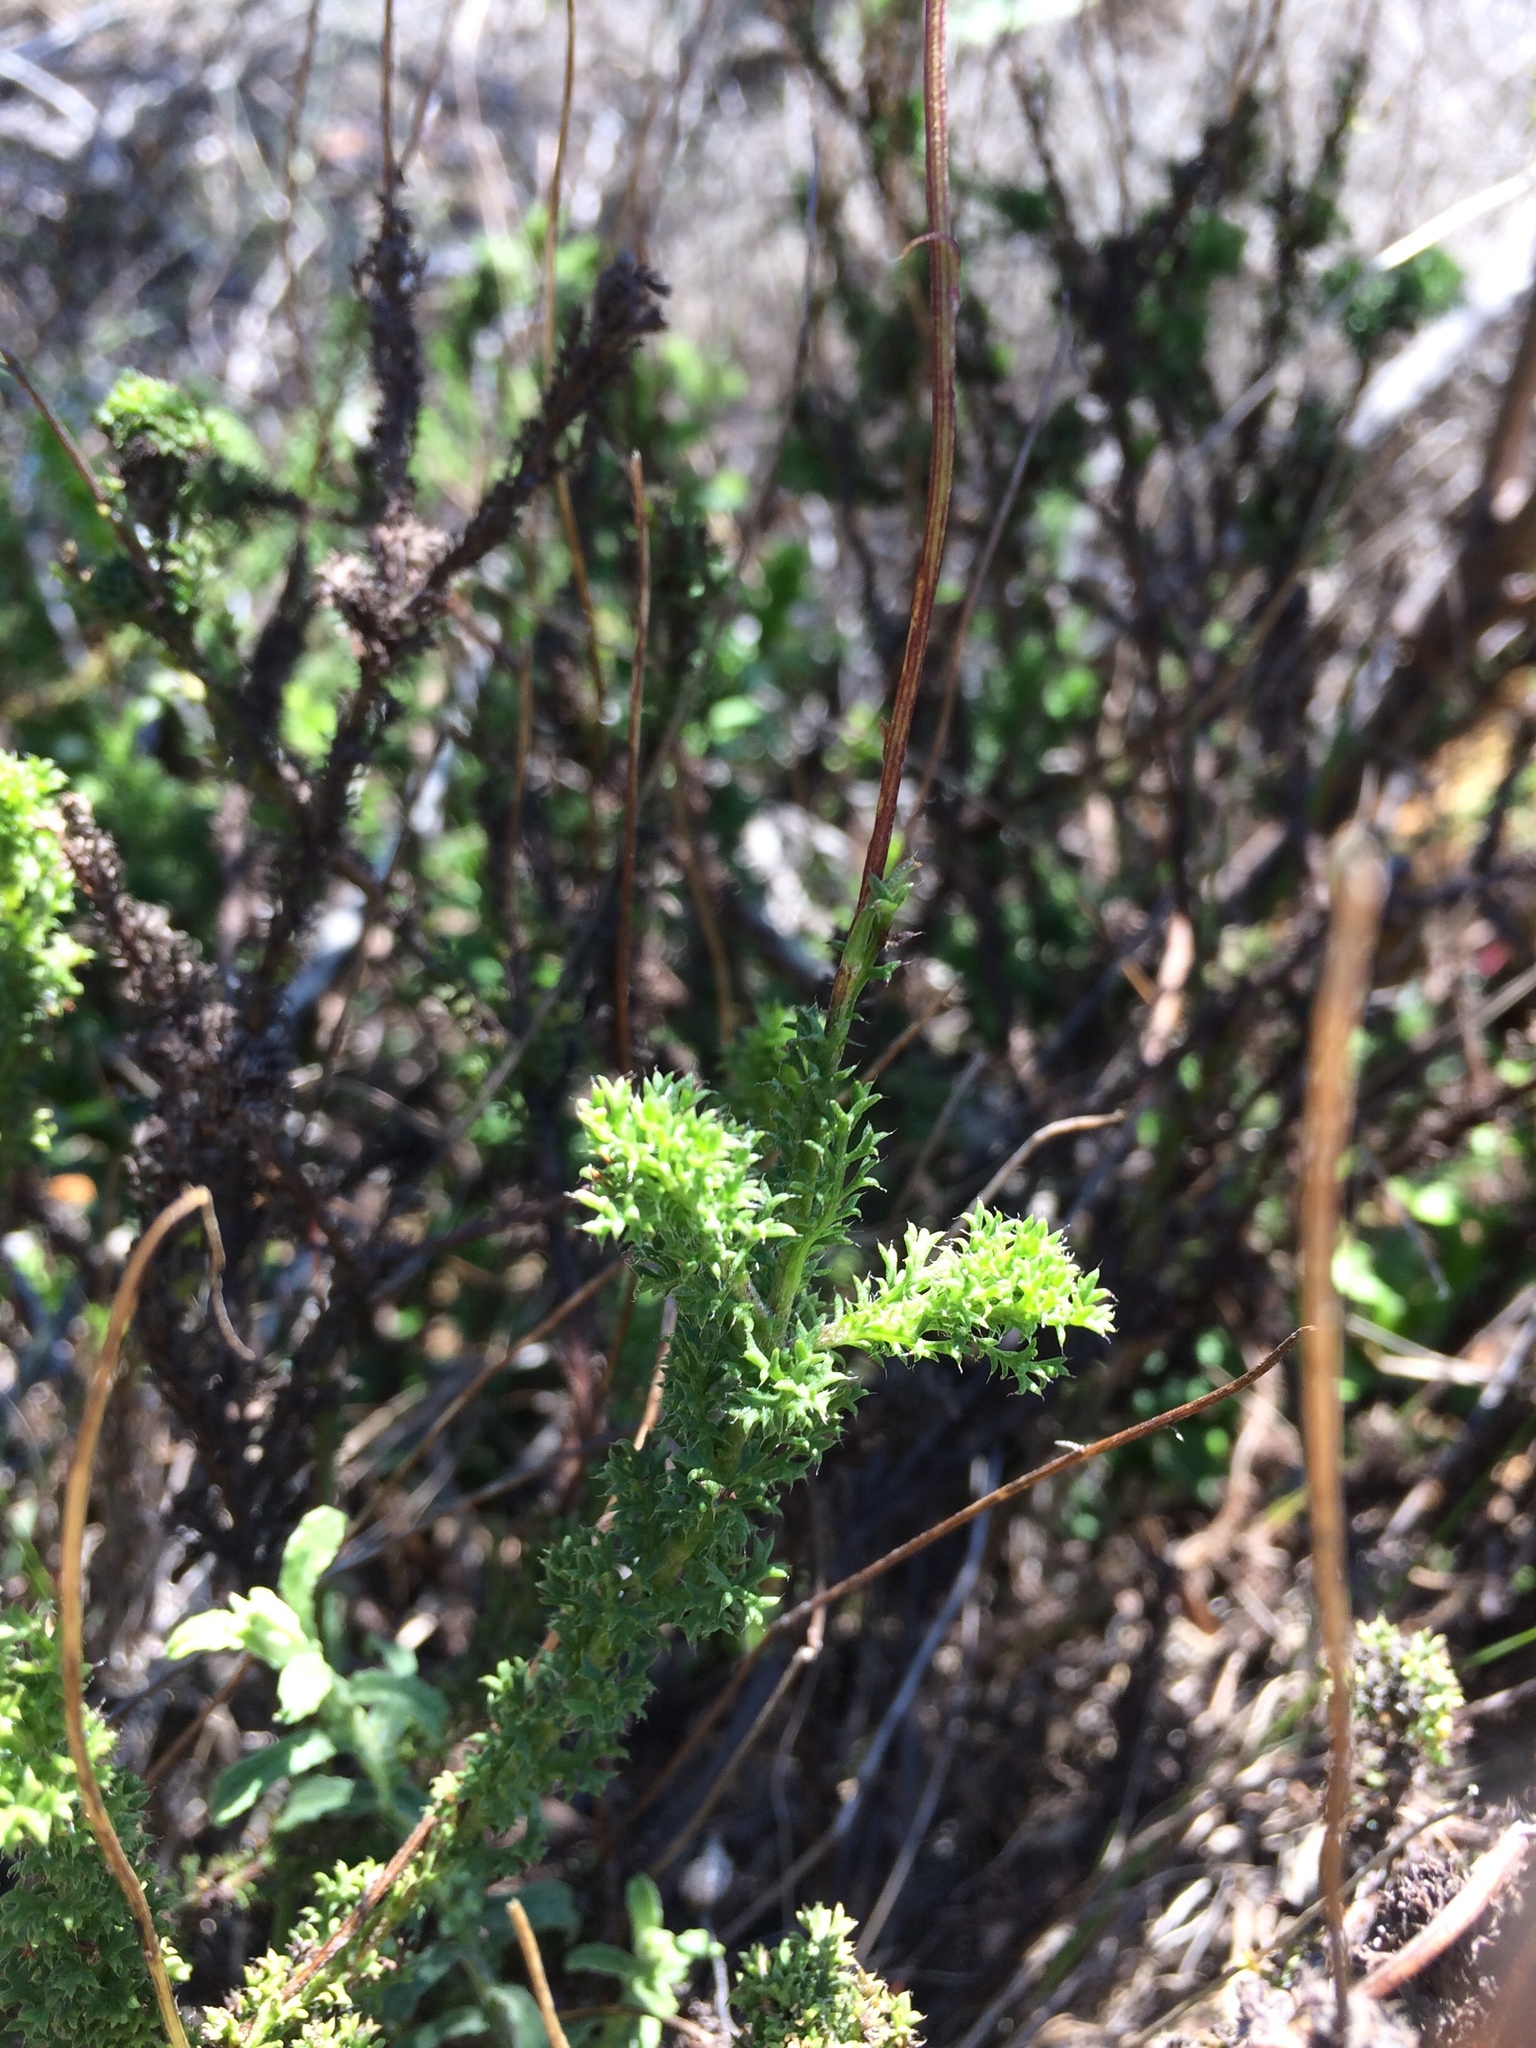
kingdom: Plantae
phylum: Tracheophyta
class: Magnoliopsida
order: Asterales
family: Asteraceae
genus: Ursinia
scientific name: Ursinia dentata
